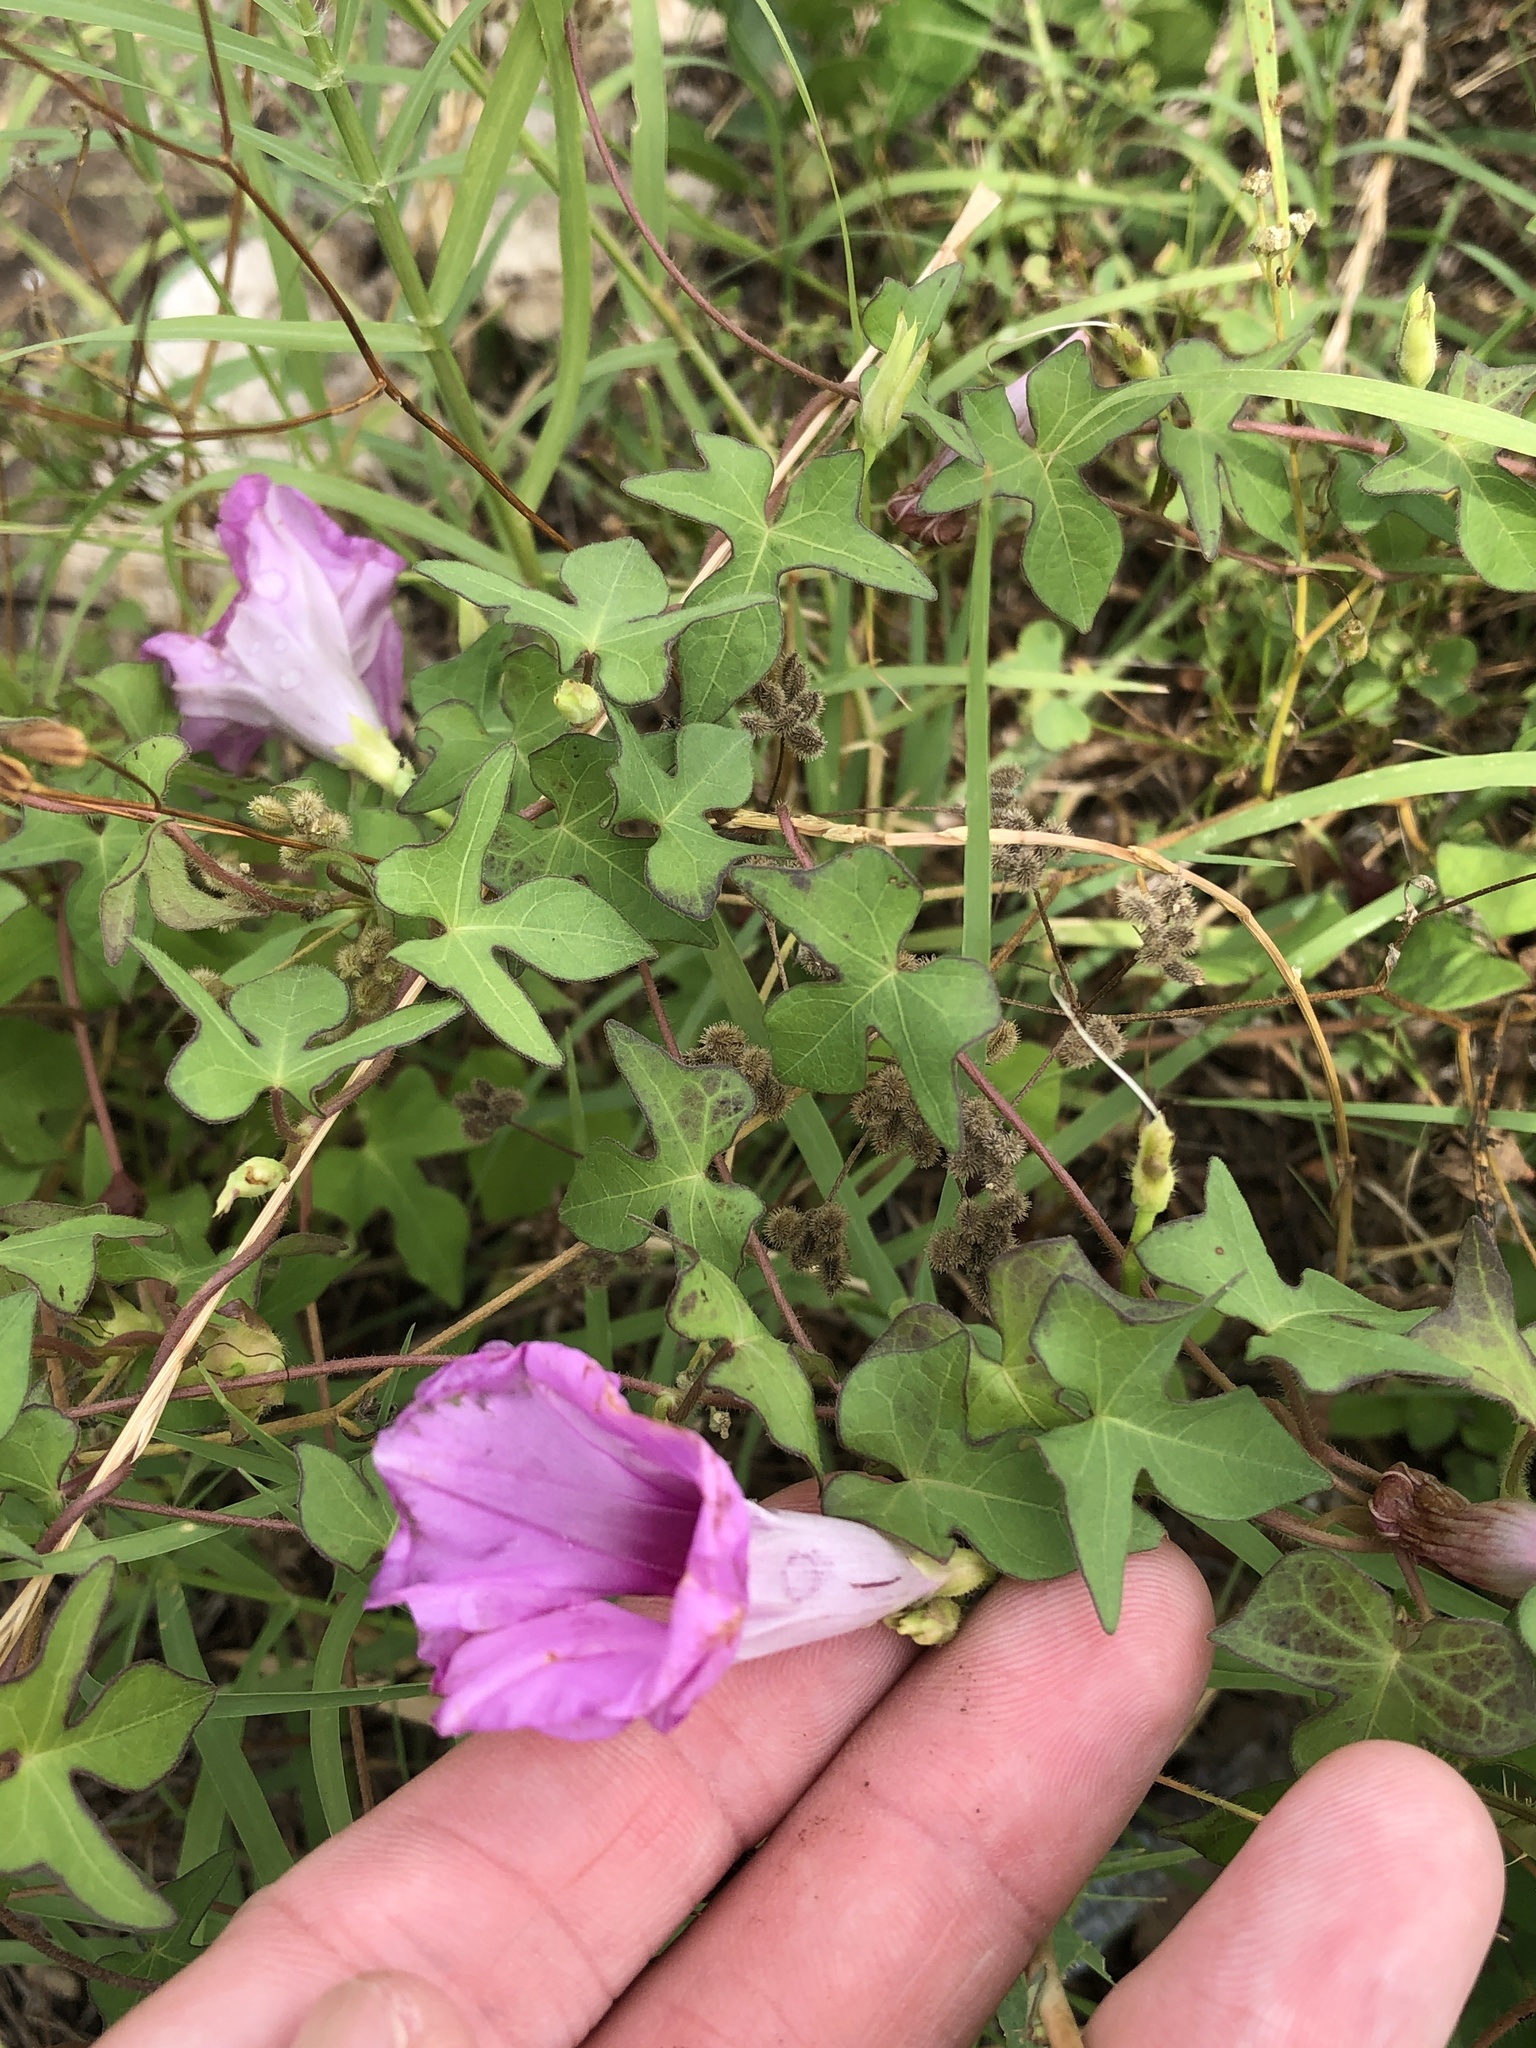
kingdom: Plantae
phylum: Tracheophyta
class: Magnoliopsida
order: Solanales
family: Convolvulaceae
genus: Ipomoea
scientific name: Ipomoea cordatotriloba
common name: Cotton morning glory
